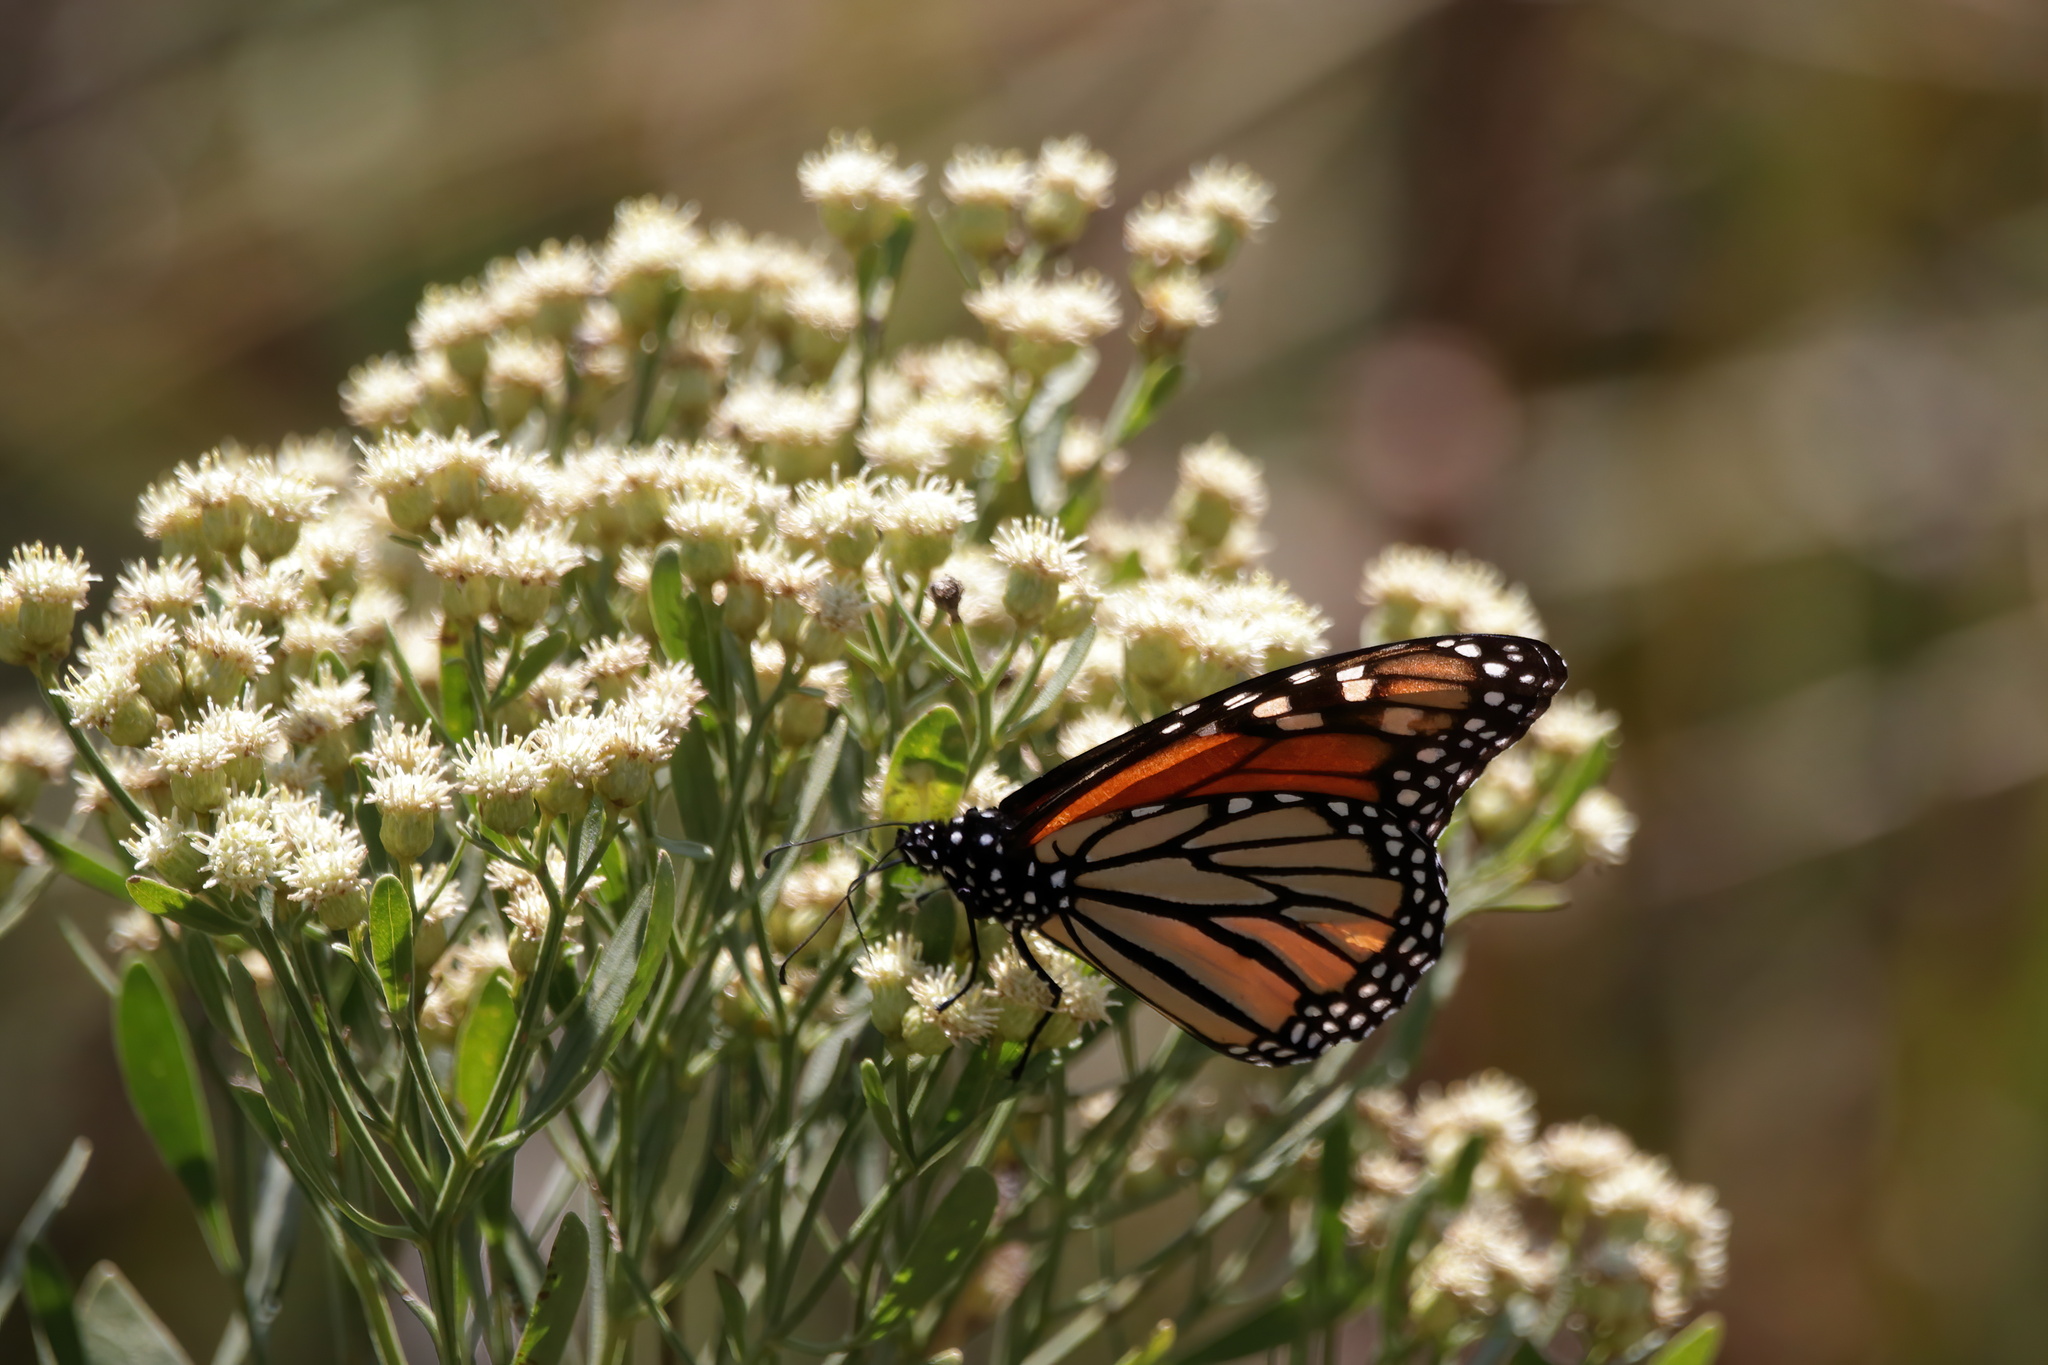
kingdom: Animalia
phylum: Arthropoda
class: Insecta
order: Lepidoptera
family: Nymphalidae
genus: Danaus
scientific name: Danaus plexippus
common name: Monarch
